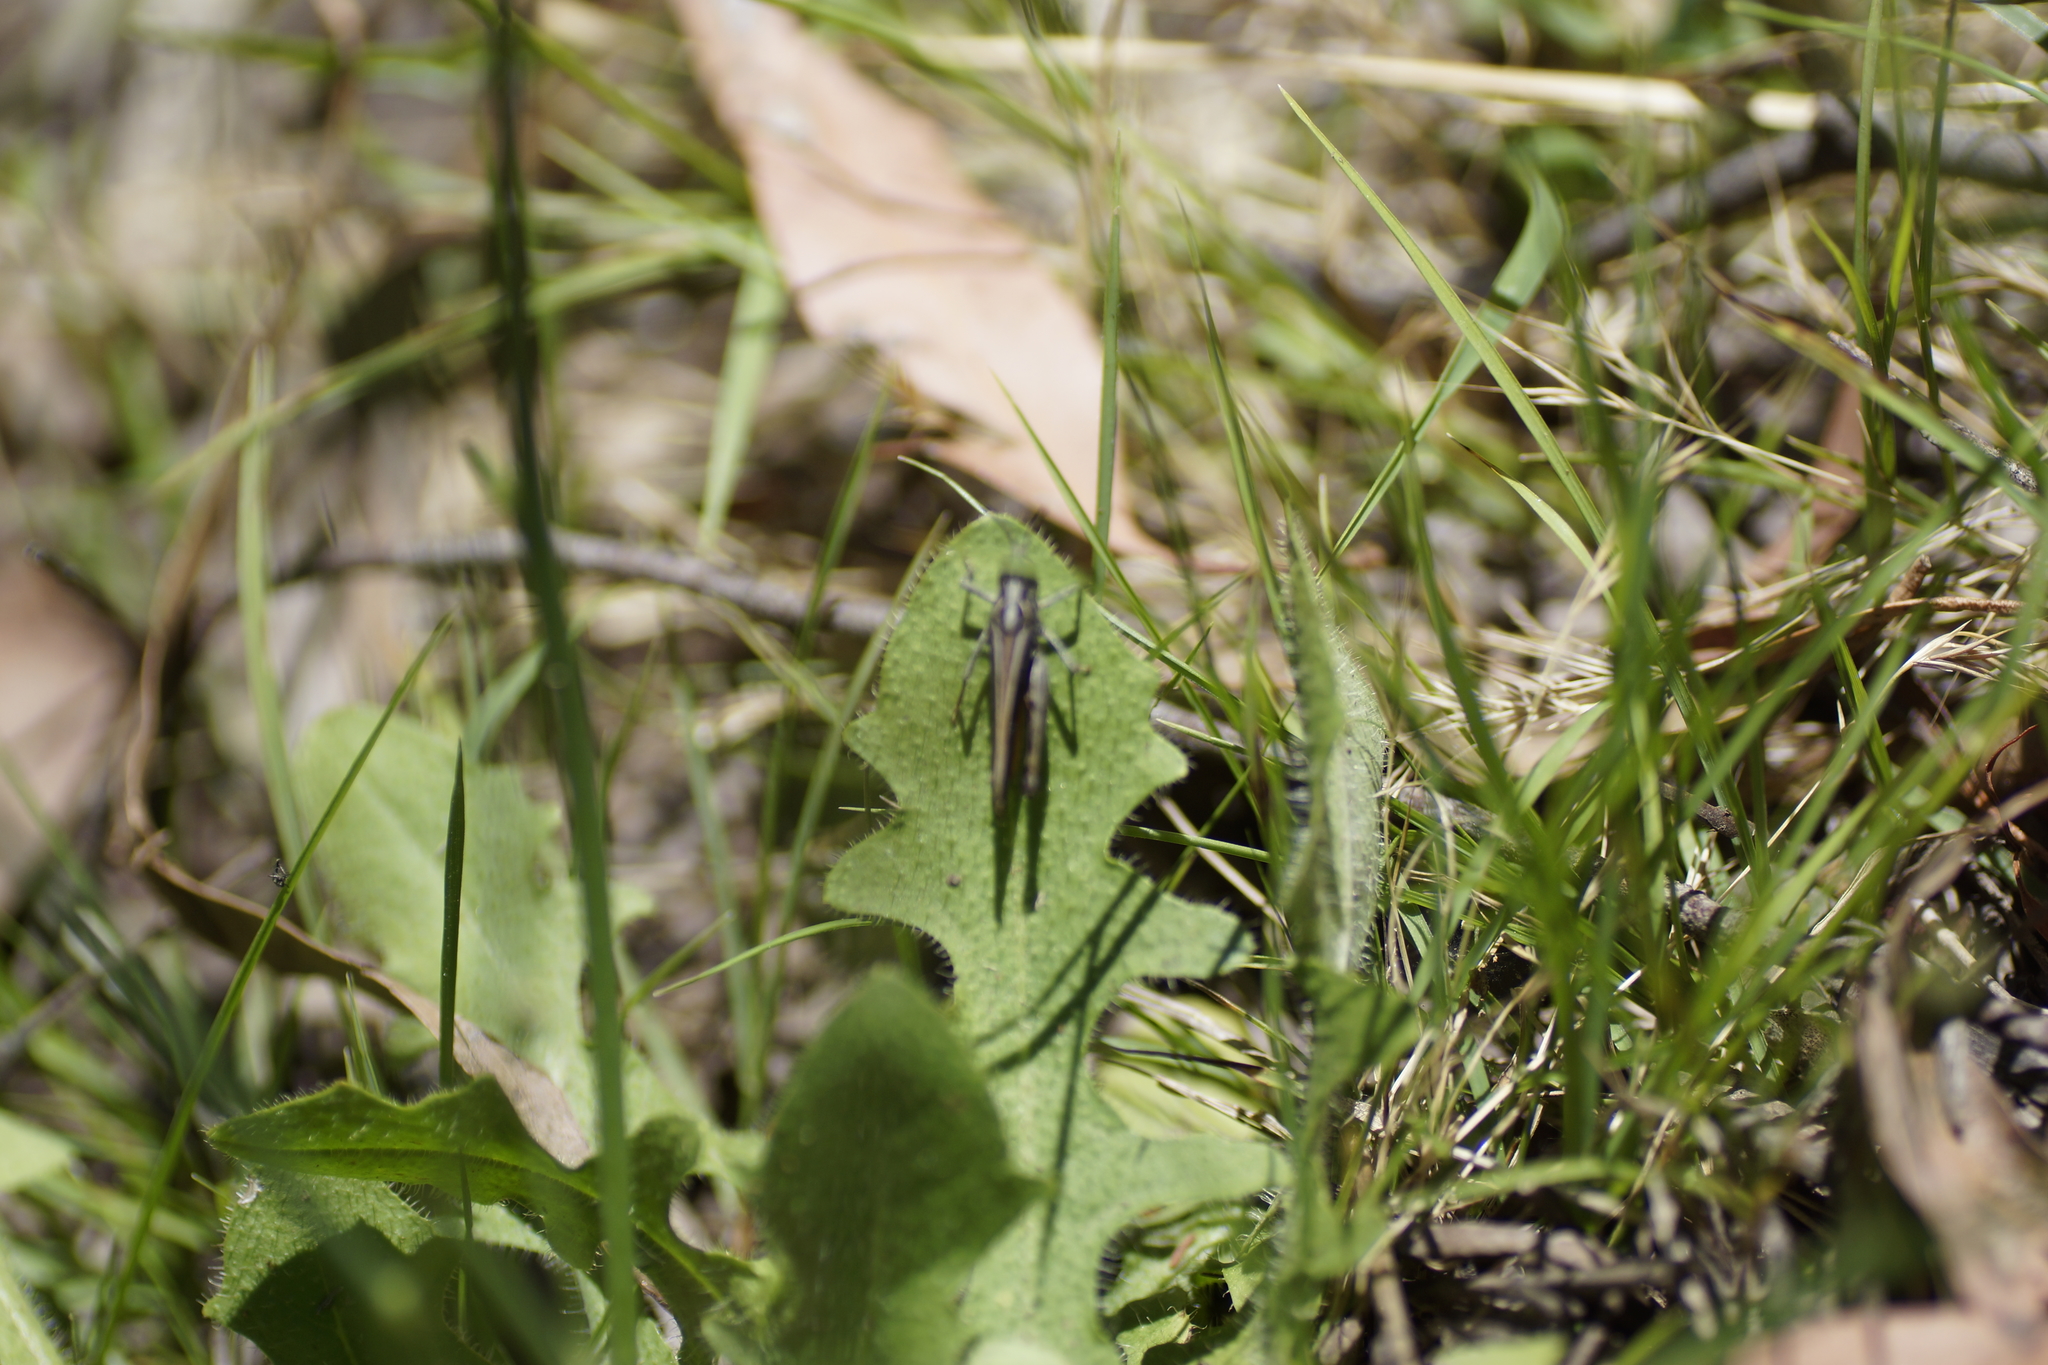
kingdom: Animalia
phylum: Arthropoda
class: Insecta
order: Orthoptera
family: Acrididae
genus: Cryptobothrus
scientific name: Cryptobothrus chrysophorus
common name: Golden bandwing
